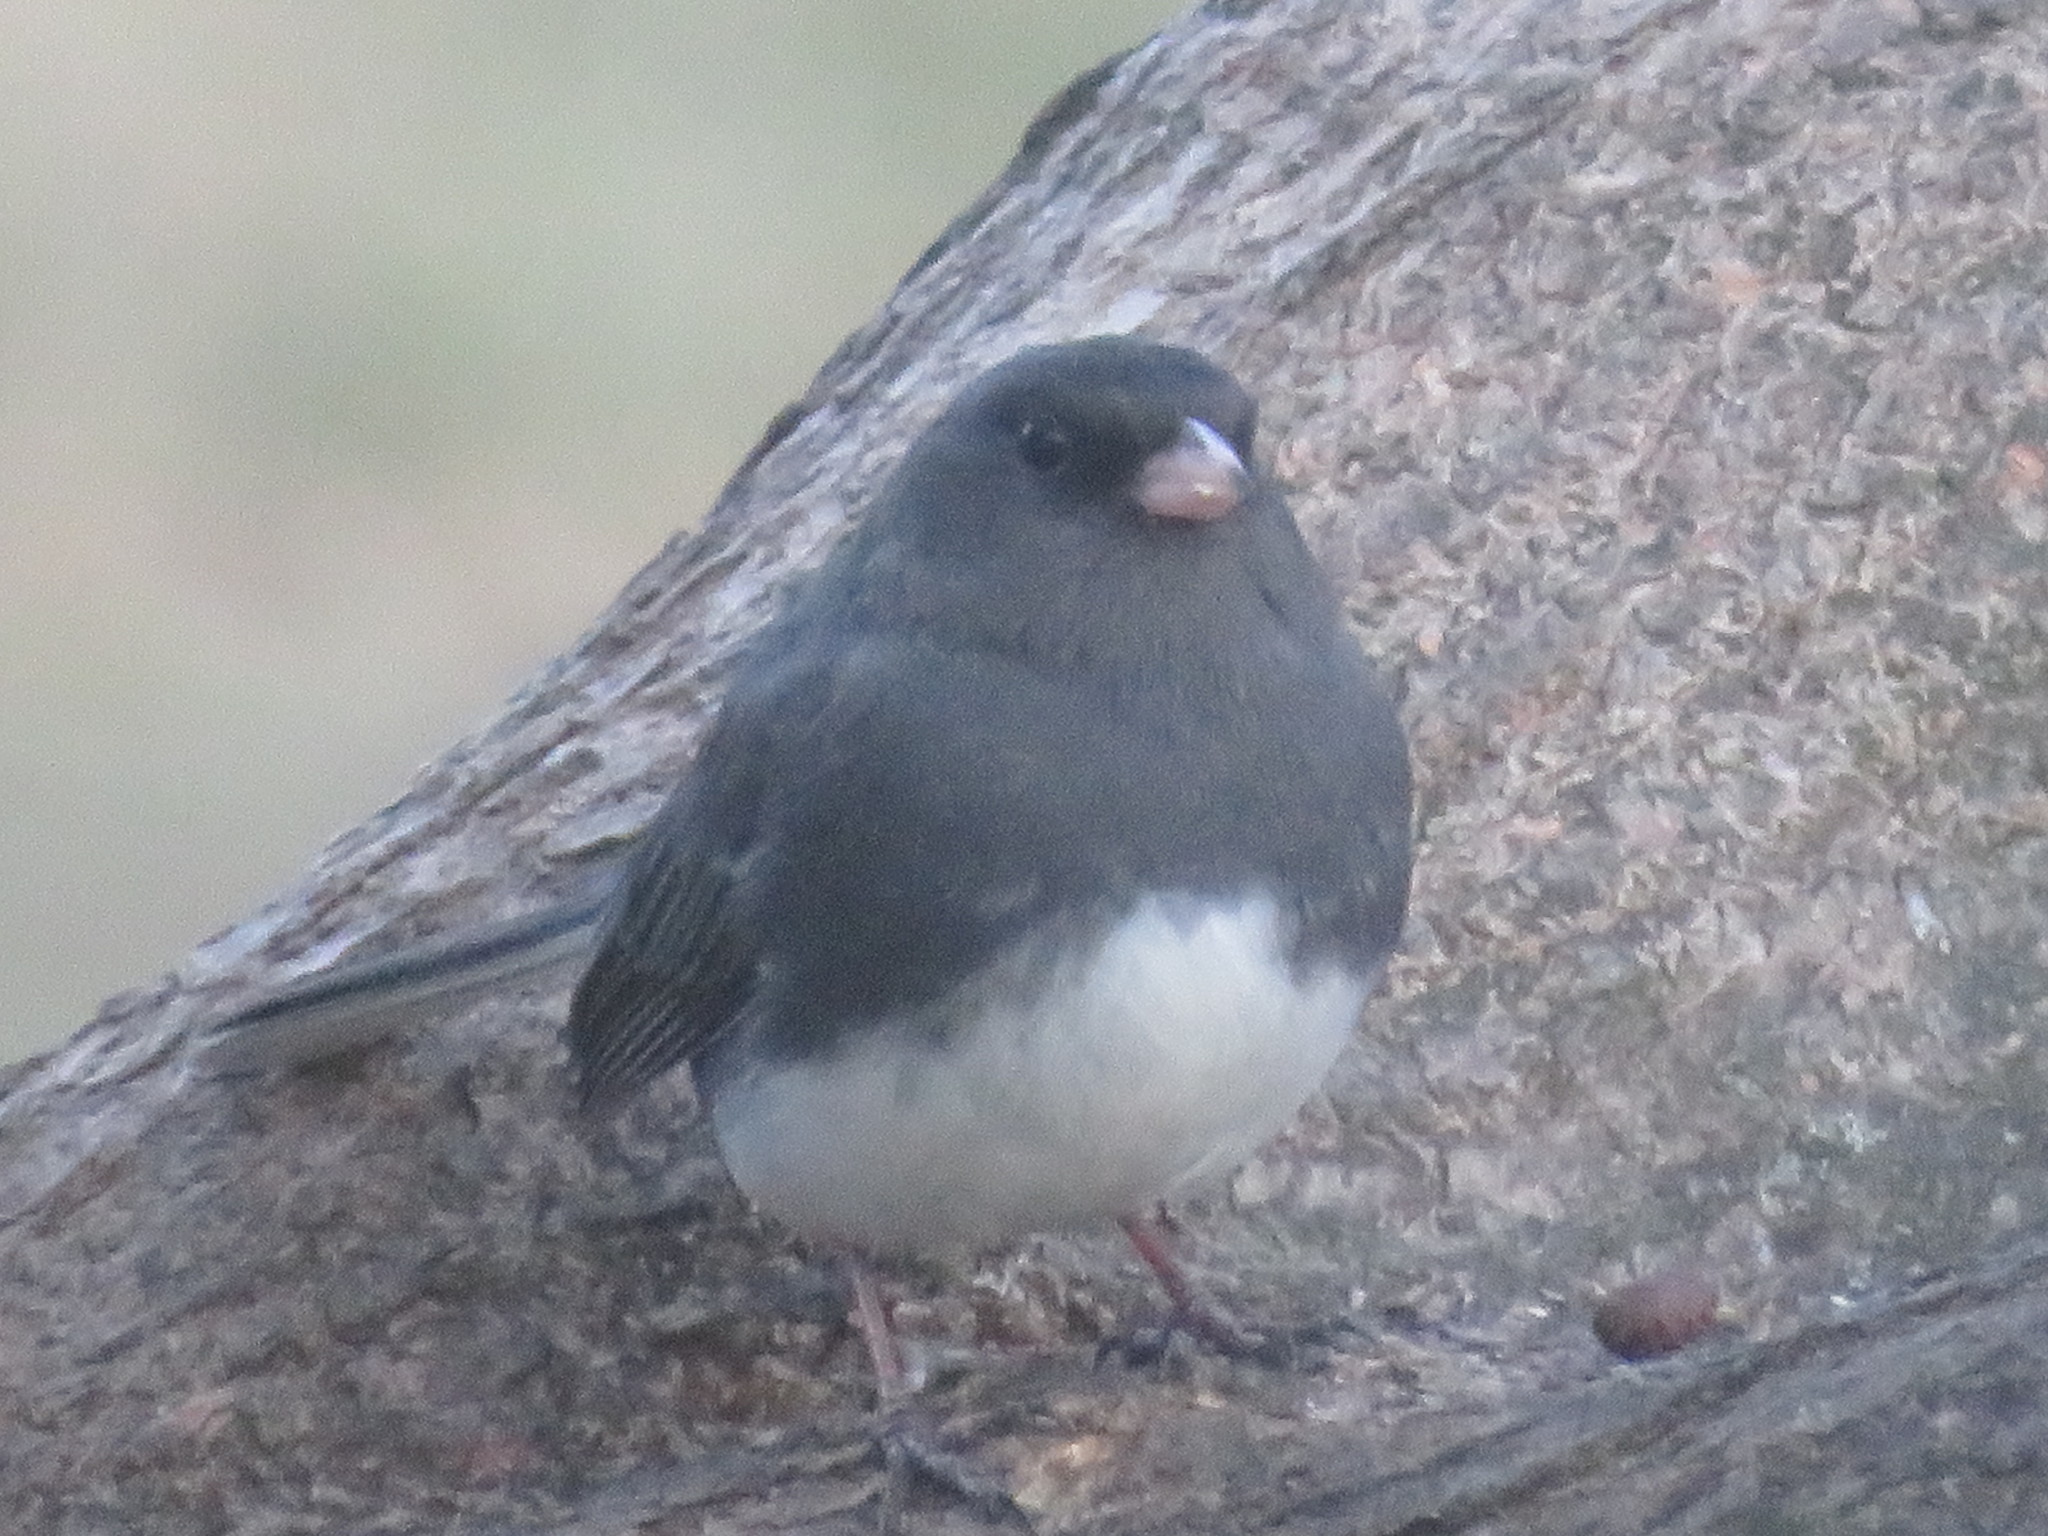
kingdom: Animalia
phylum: Chordata
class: Aves
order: Passeriformes
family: Passerellidae
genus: Junco
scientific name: Junco hyemalis
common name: Dark-eyed junco
